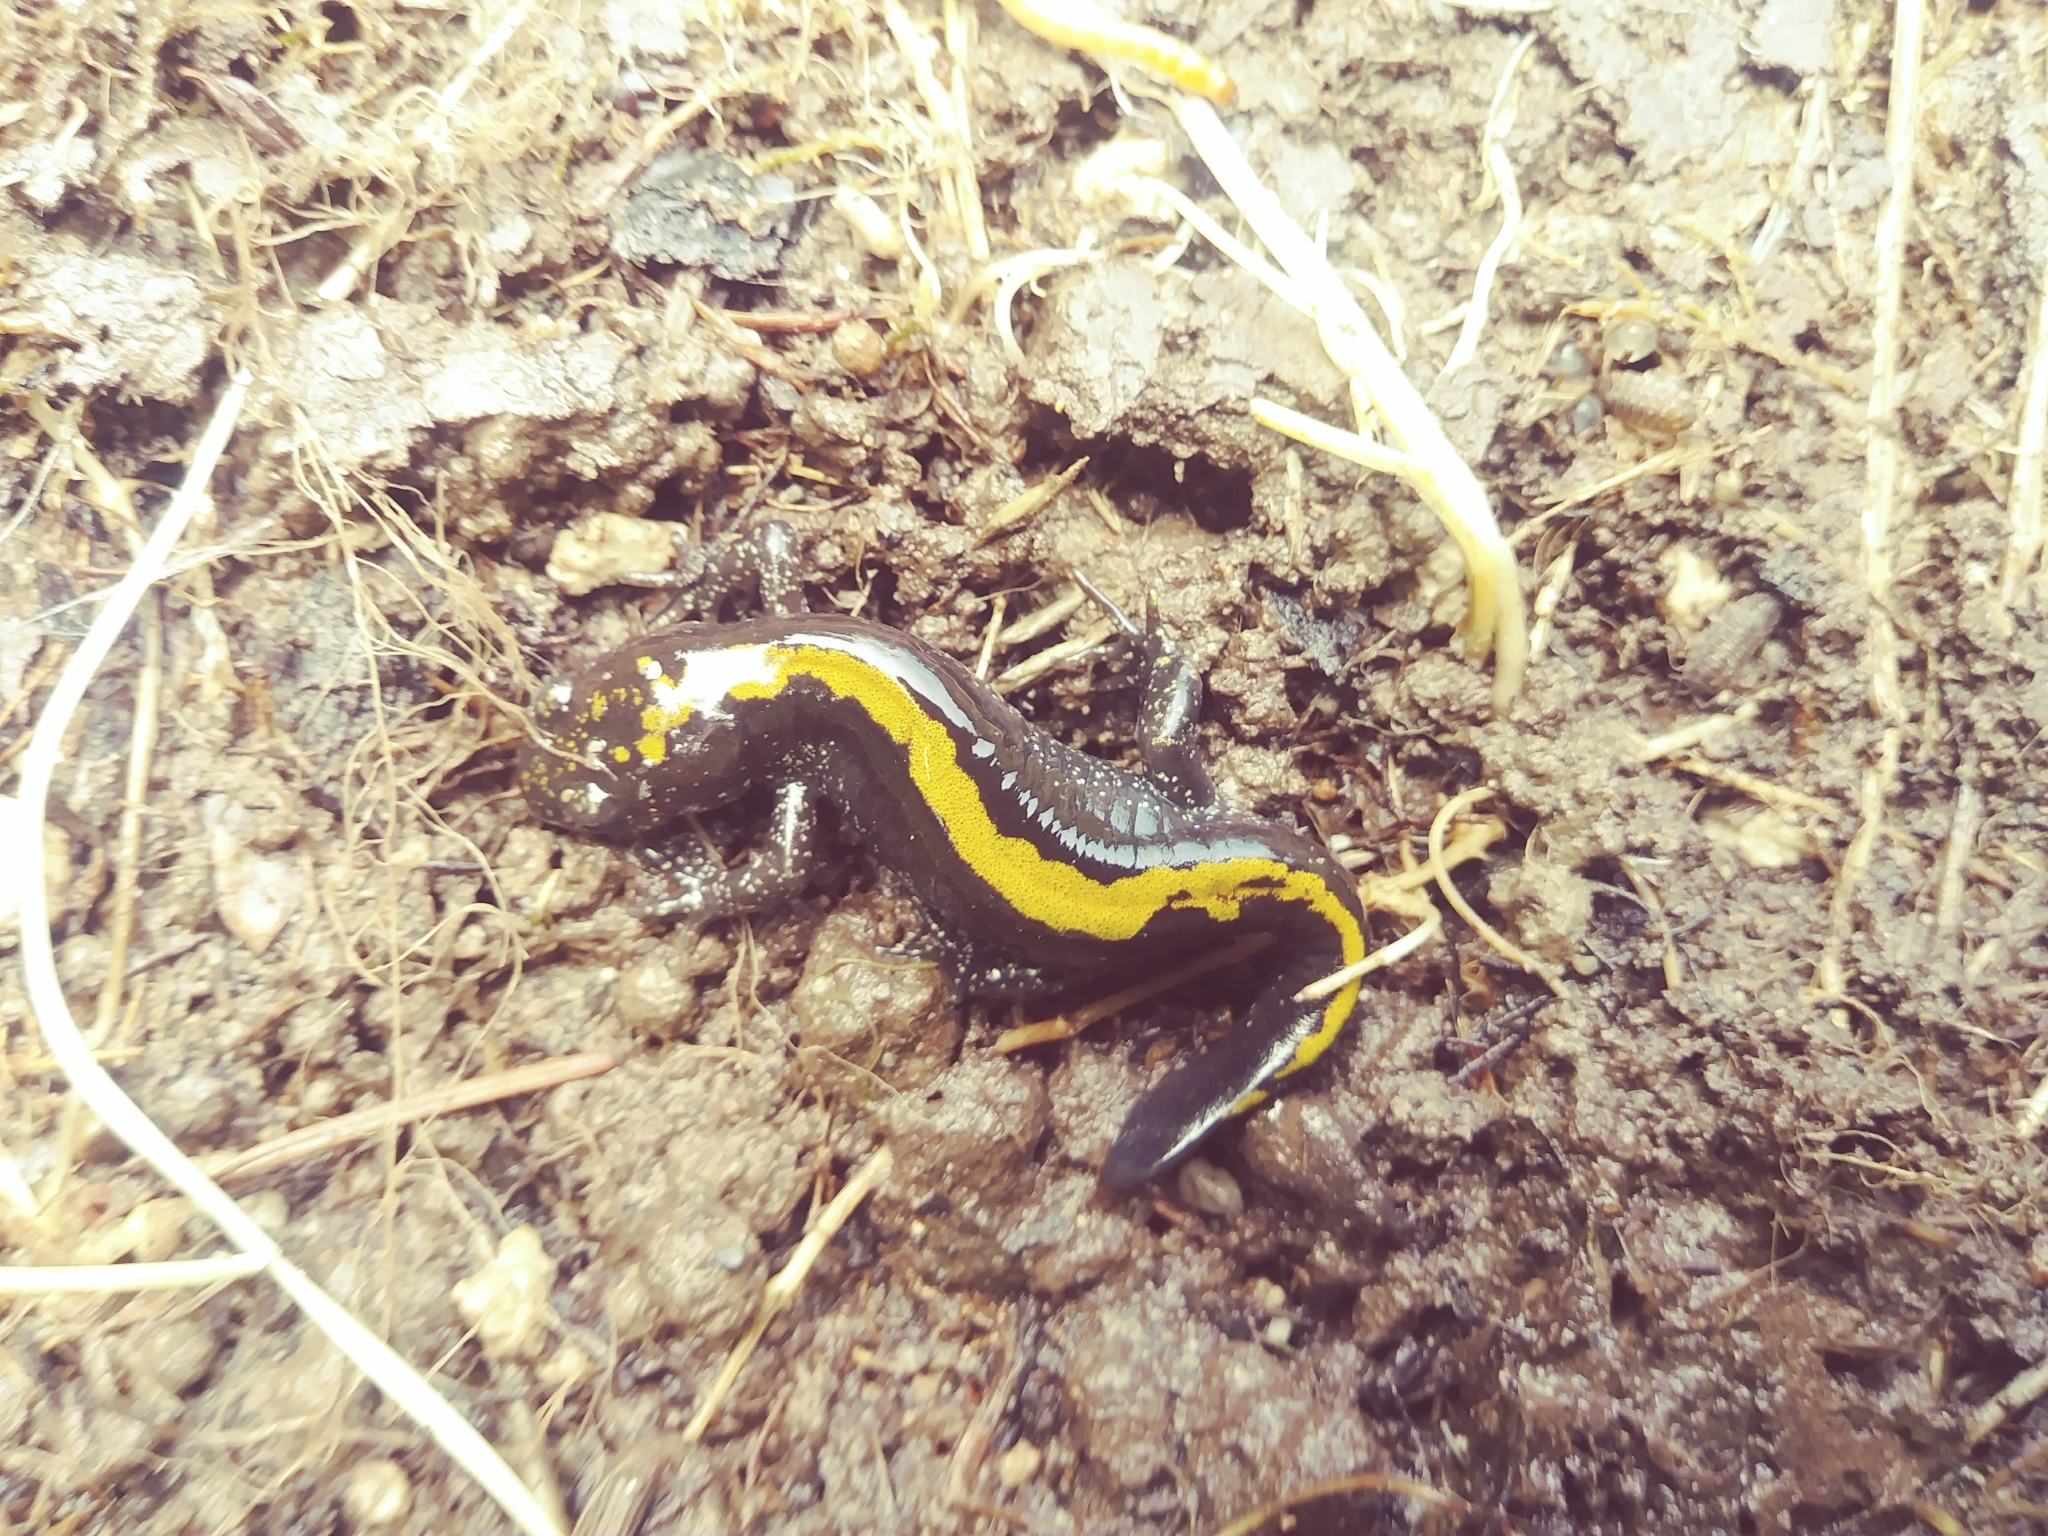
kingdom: Animalia
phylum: Chordata
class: Amphibia
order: Caudata
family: Ambystomatidae
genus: Ambystoma
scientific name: Ambystoma macrodactylum
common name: Long-toed salamander
